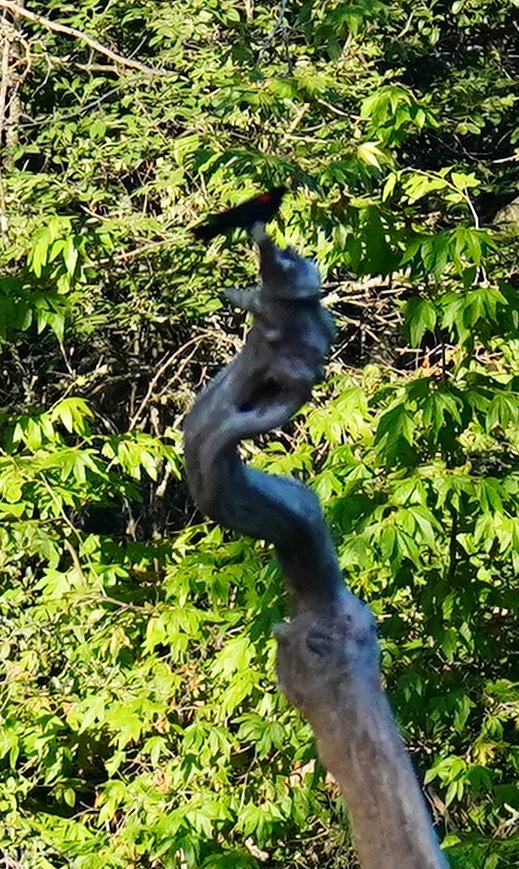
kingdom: Animalia
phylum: Chordata
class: Aves
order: Passeriformes
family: Icteridae
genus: Agelaius
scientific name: Agelaius phoeniceus
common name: Red-winged blackbird
